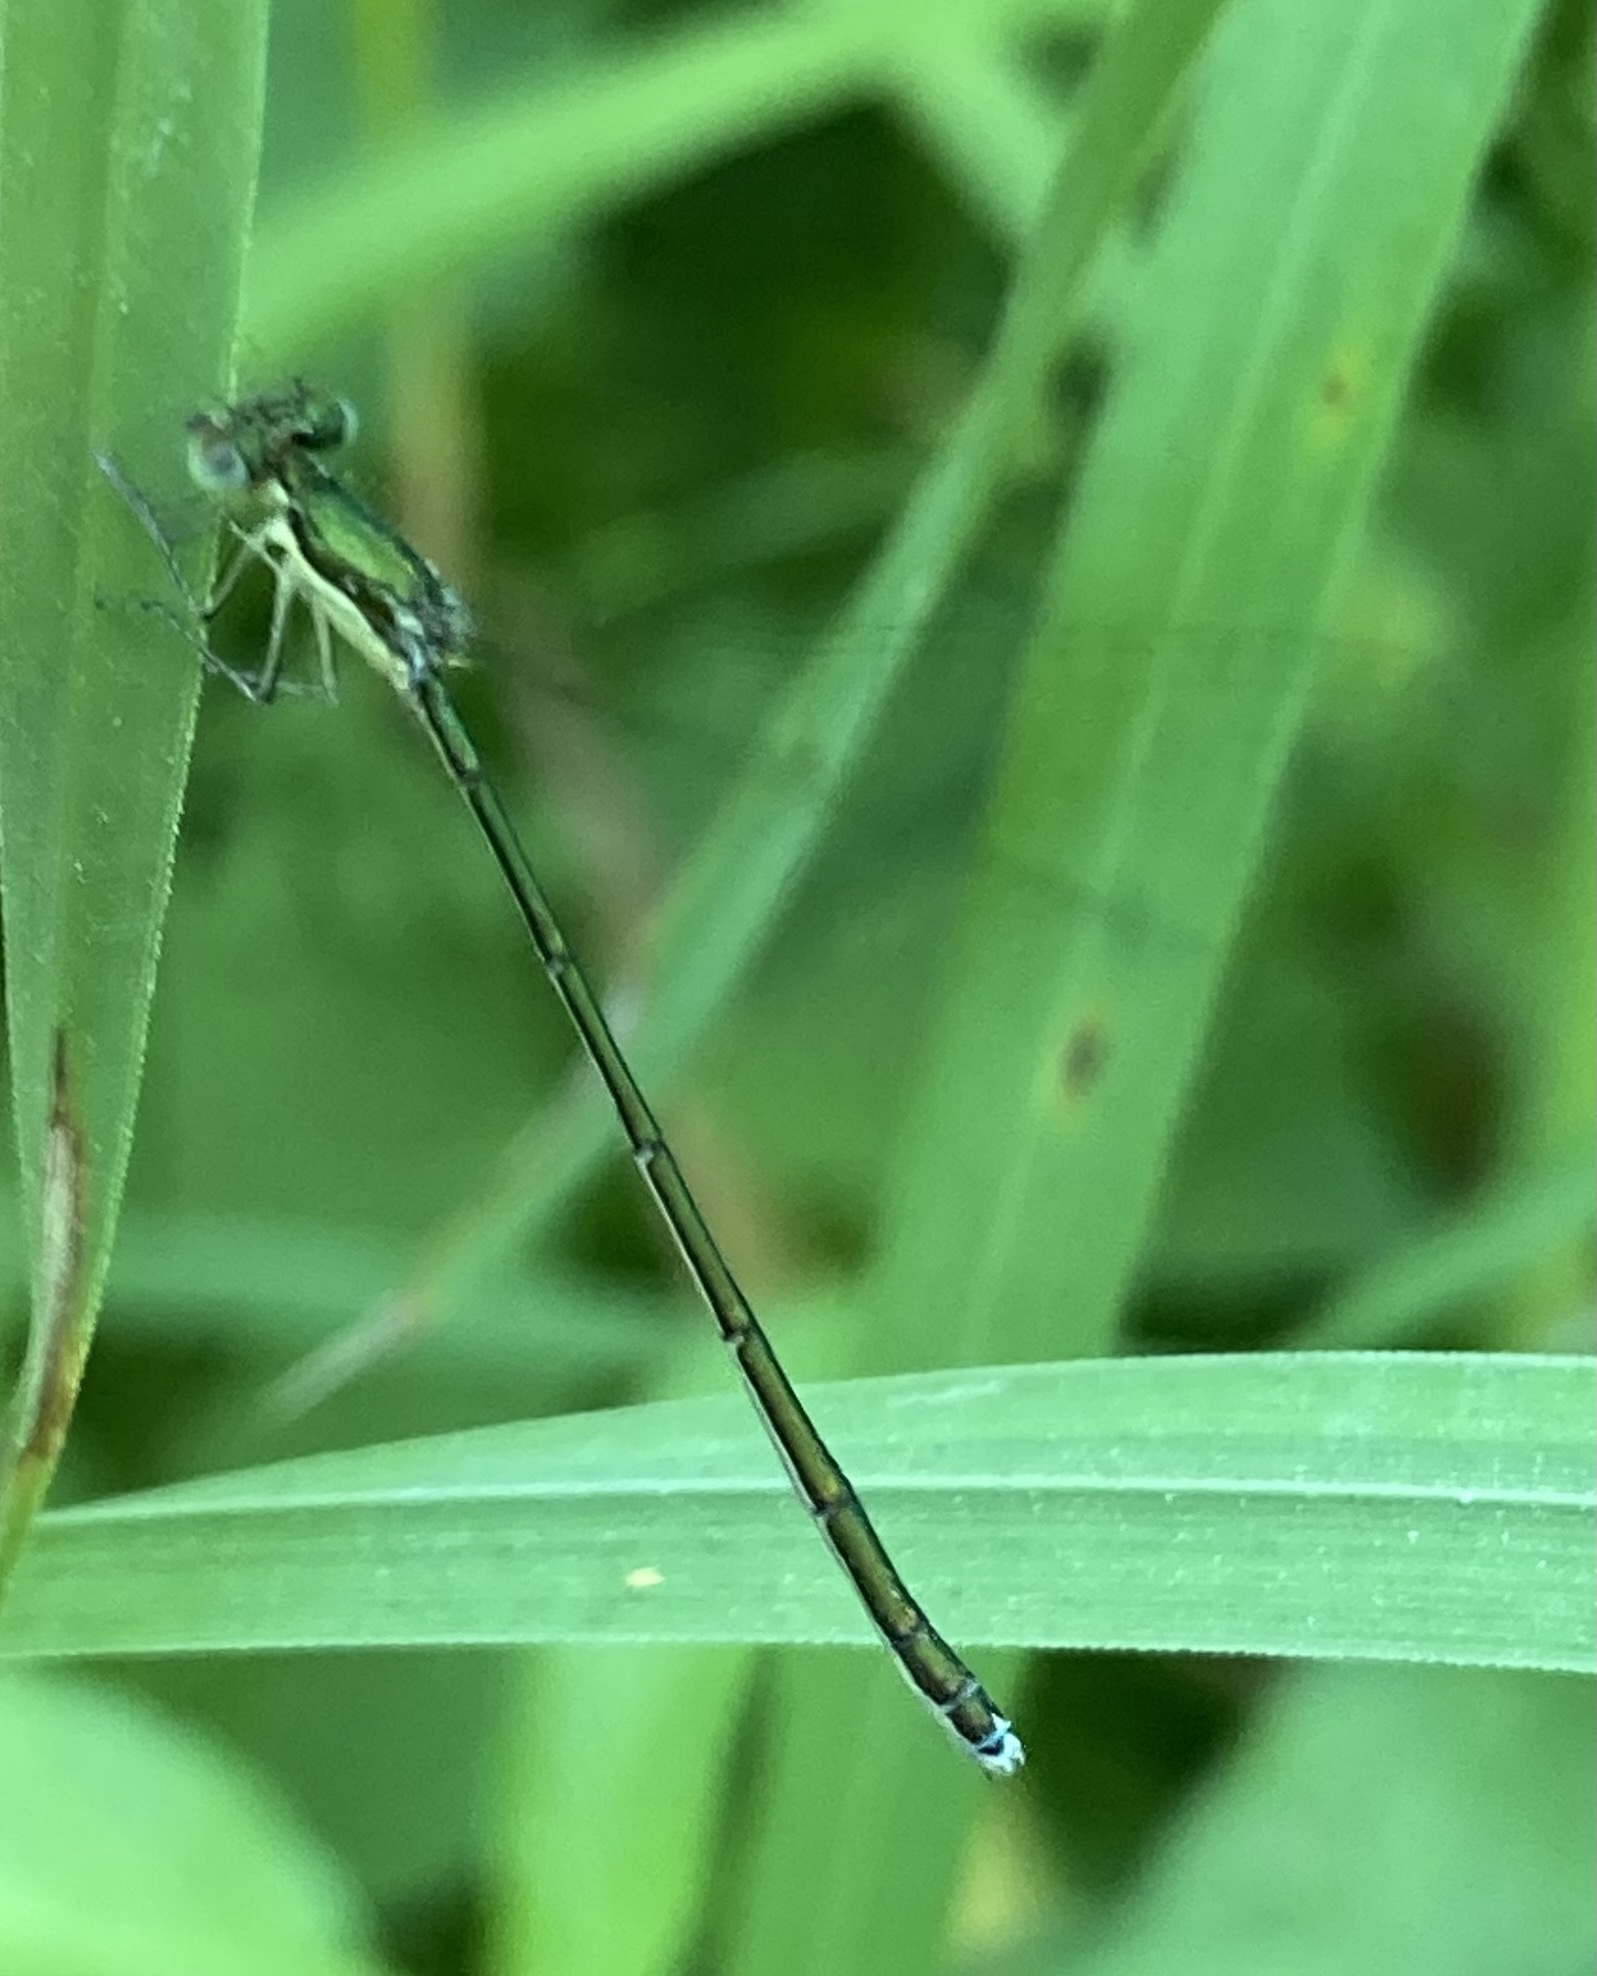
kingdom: Animalia
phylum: Arthropoda
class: Insecta
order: Odonata
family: Coenagrionidae
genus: Nehalennia
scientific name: Nehalennia irene
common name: Sedge sprite
